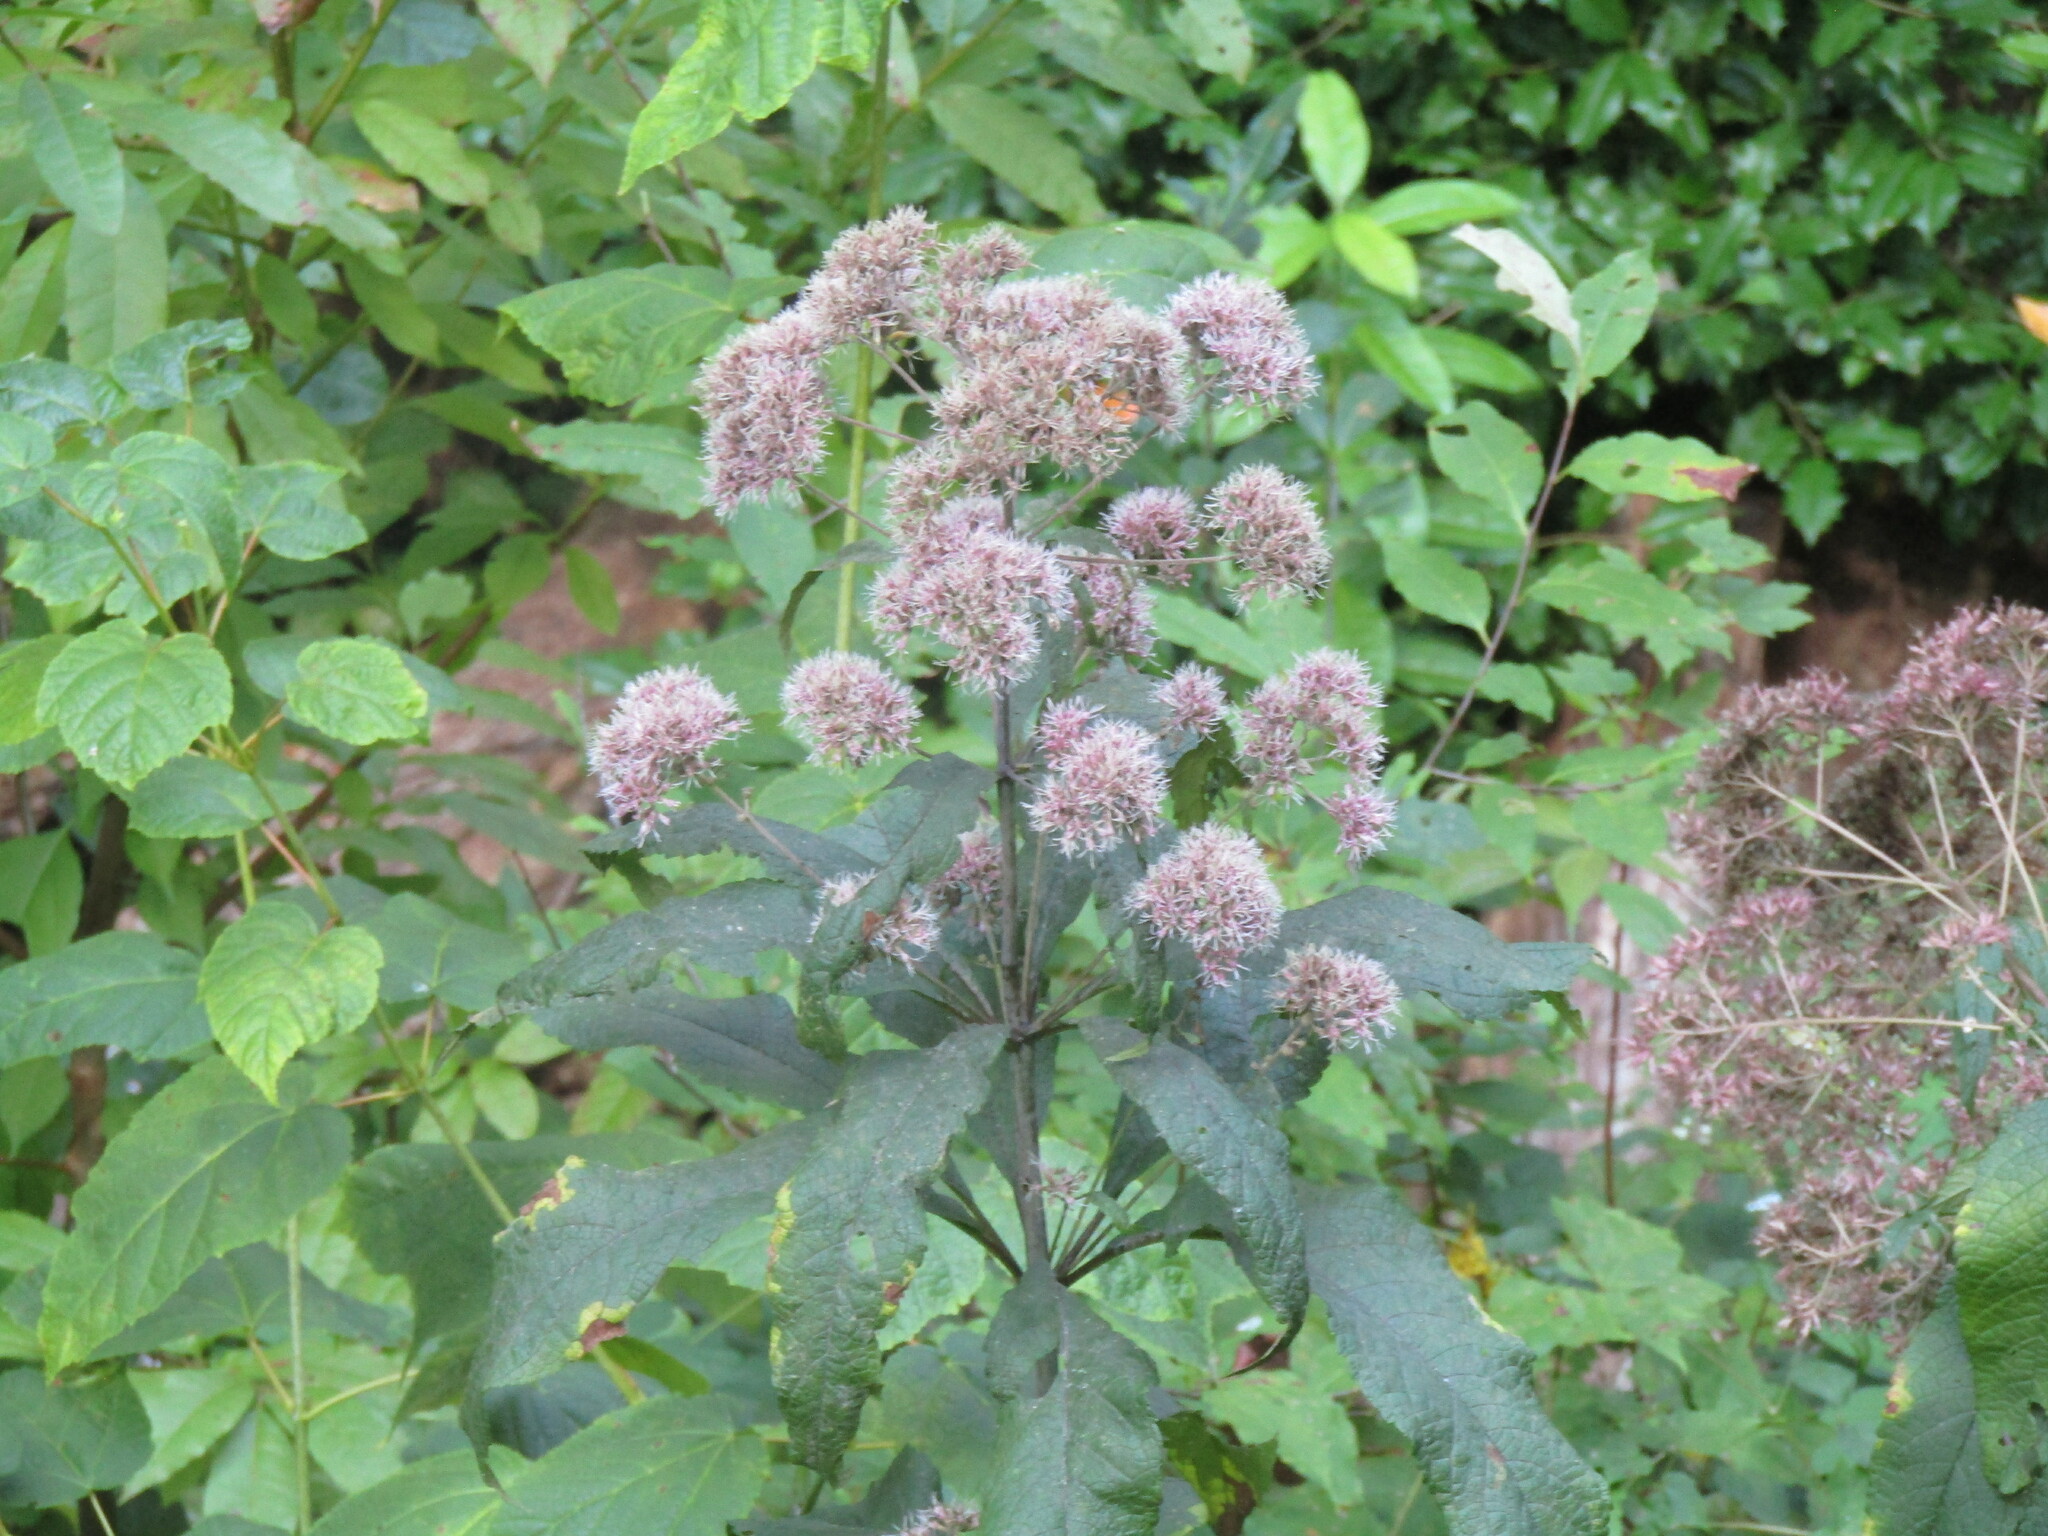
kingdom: Plantae
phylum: Tracheophyta
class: Magnoliopsida
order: Asterales
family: Asteraceae
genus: Eutrochium
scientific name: Eutrochium fistulosum
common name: Trumpetweed
